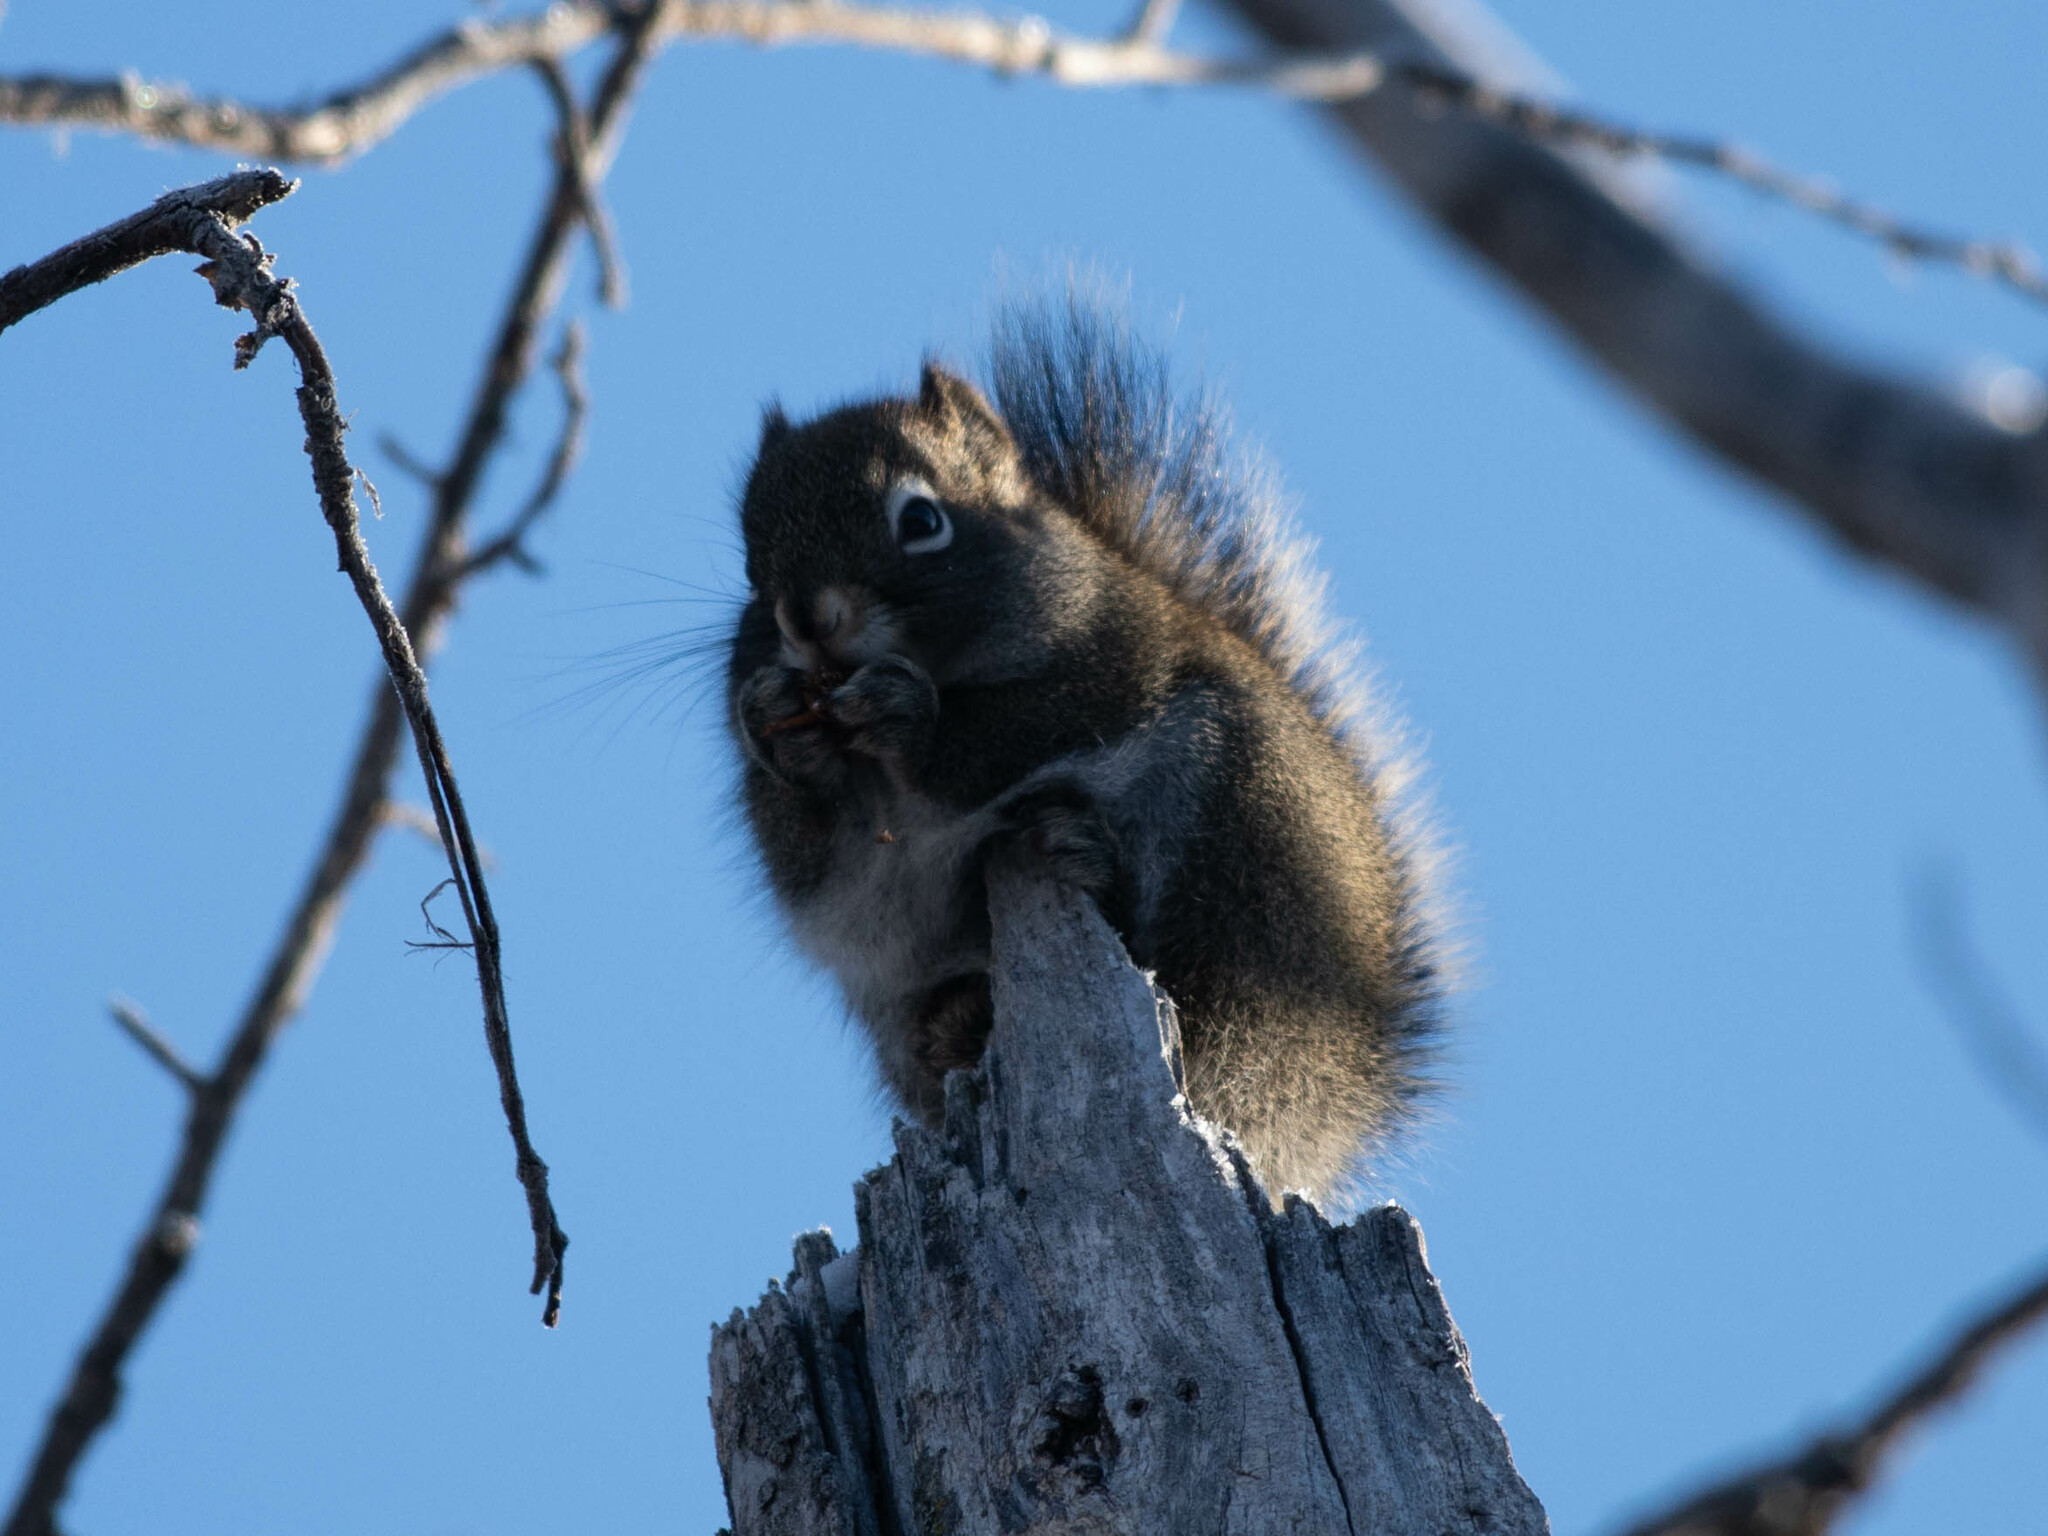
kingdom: Animalia
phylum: Chordata
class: Mammalia
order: Rodentia
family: Sciuridae
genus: Tamiasciurus
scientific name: Tamiasciurus hudsonicus
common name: Red squirrel
